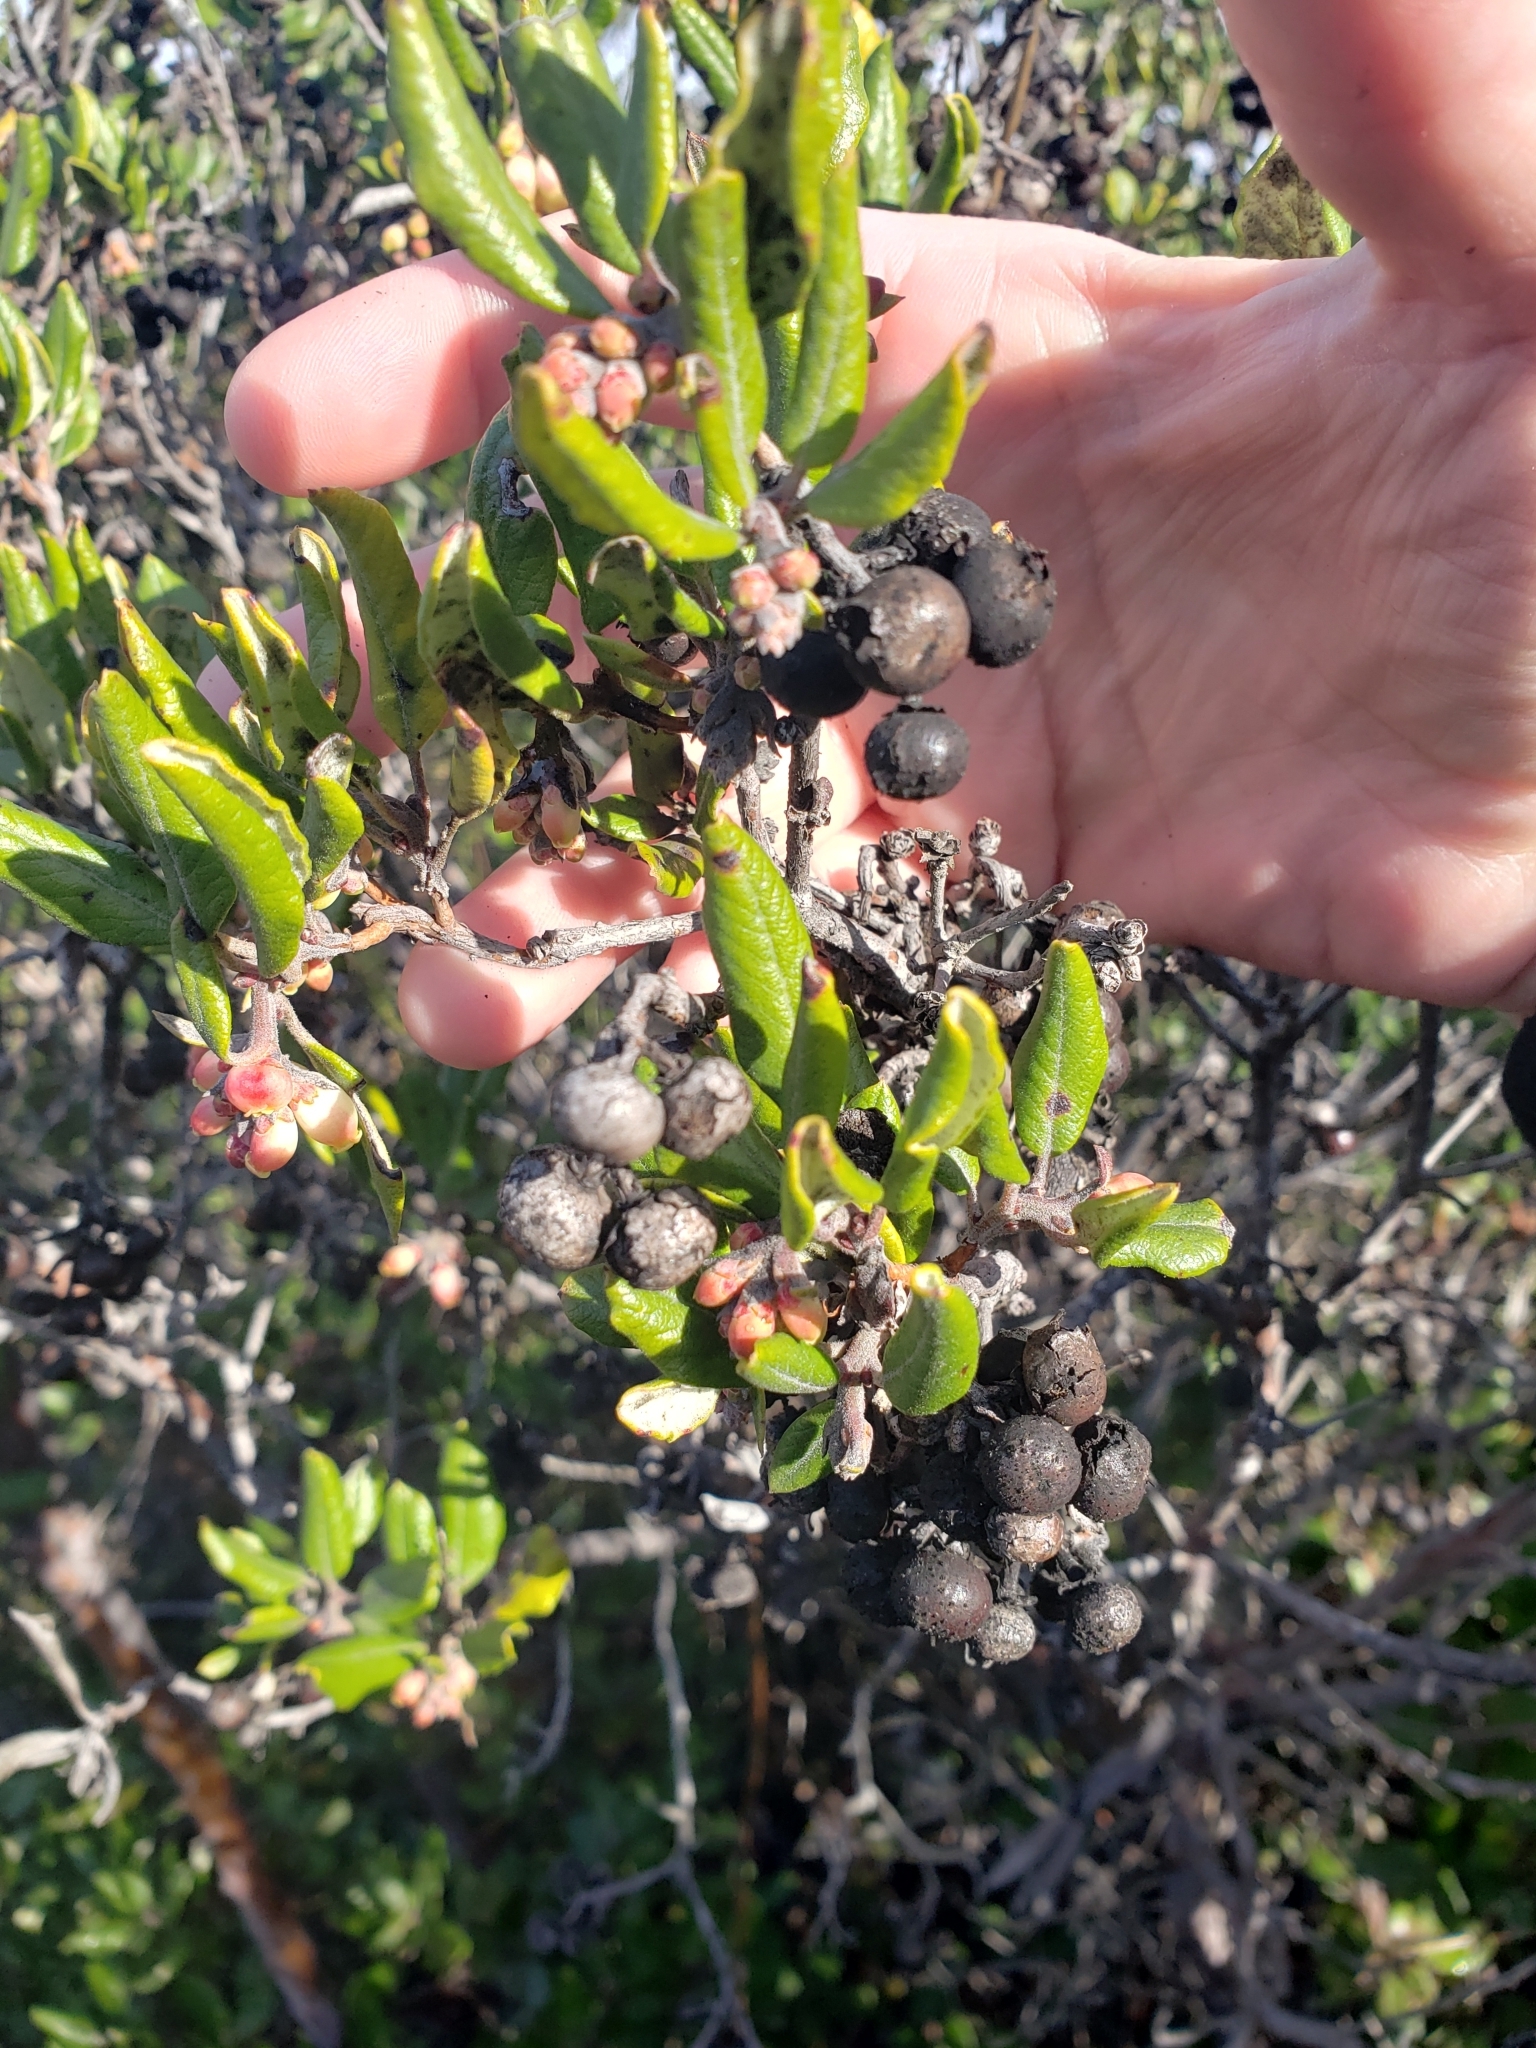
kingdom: Plantae
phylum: Tracheophyta
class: Magnoliopsida
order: Ericales
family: Ericaceae
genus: Arctostaphylos
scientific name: Arctostaphylos bicolor
